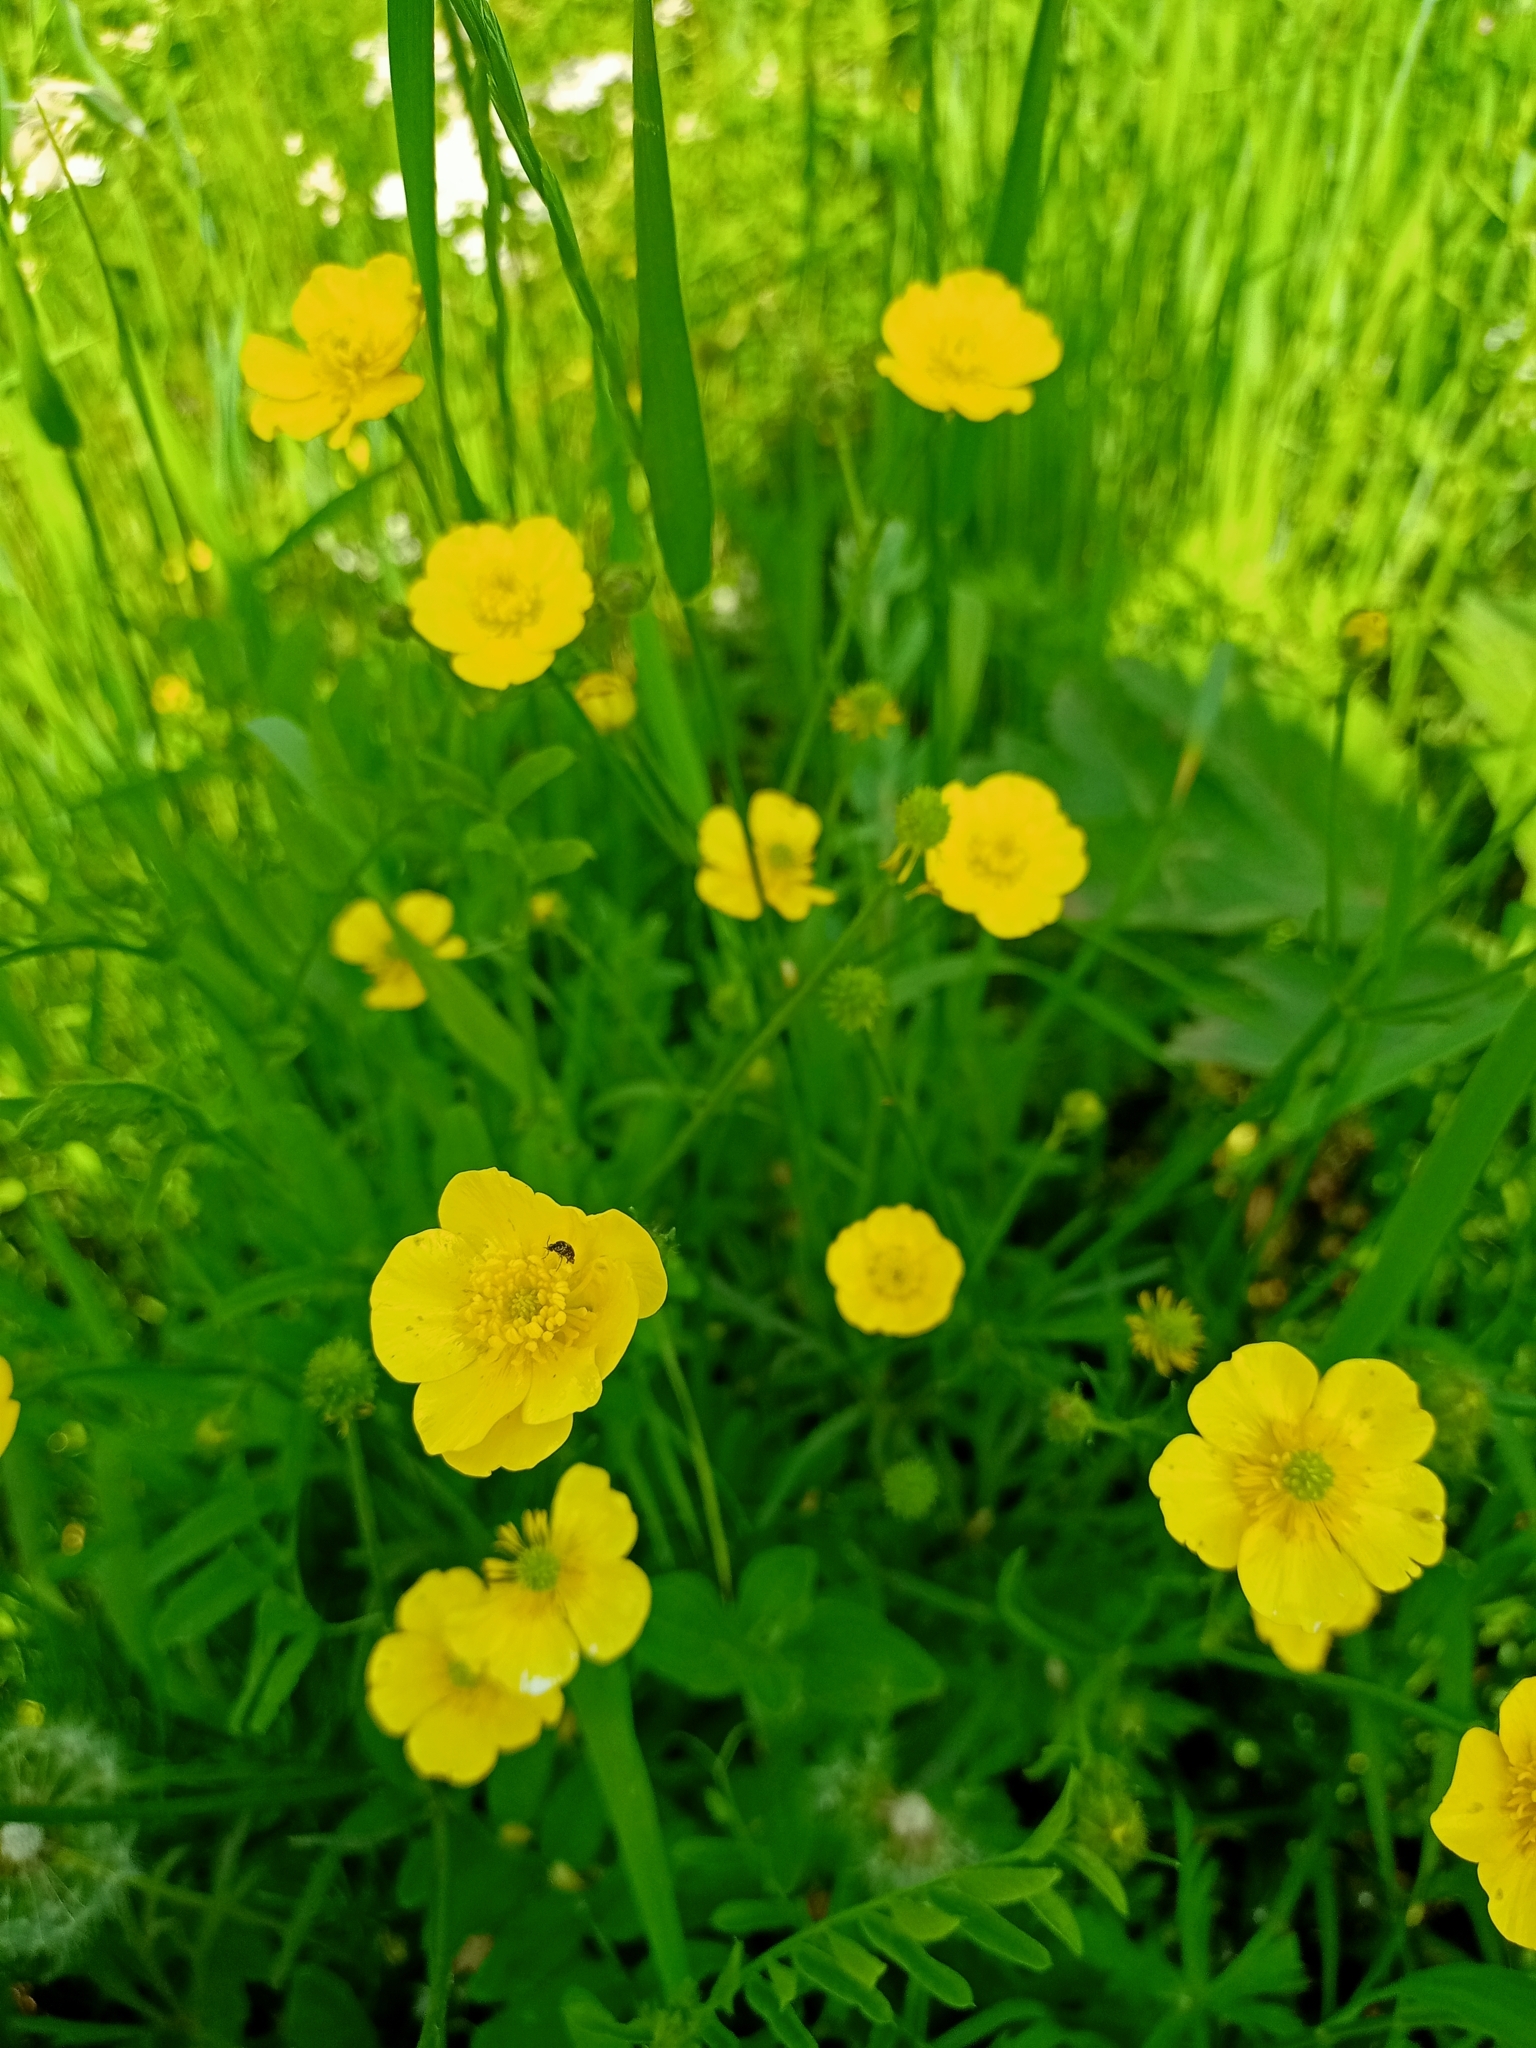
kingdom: Plantae
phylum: Tracheophyta
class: Magnoliopsida
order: Ranunculales
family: Ranunculaceae
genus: Ranunculus
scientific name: Ranunculus polyanthemos
